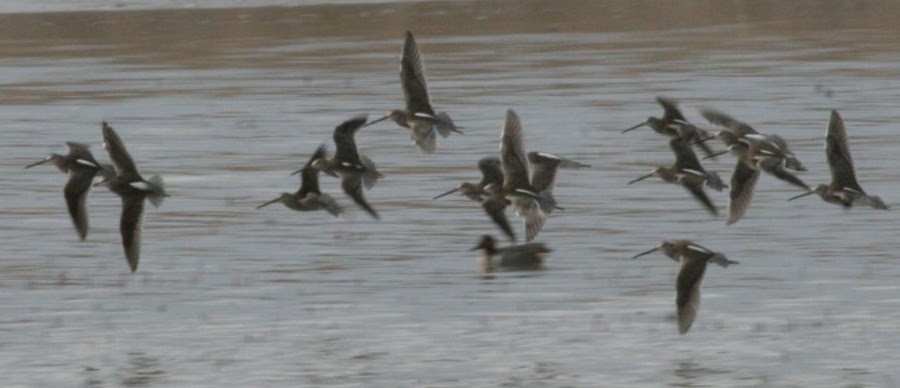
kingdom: Animalia
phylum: Chordata
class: Aves
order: Charadriiformes
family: Scolopacidae
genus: Limnodromus
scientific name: Limnodromus scolopaceus
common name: Long-billed dowitcher
